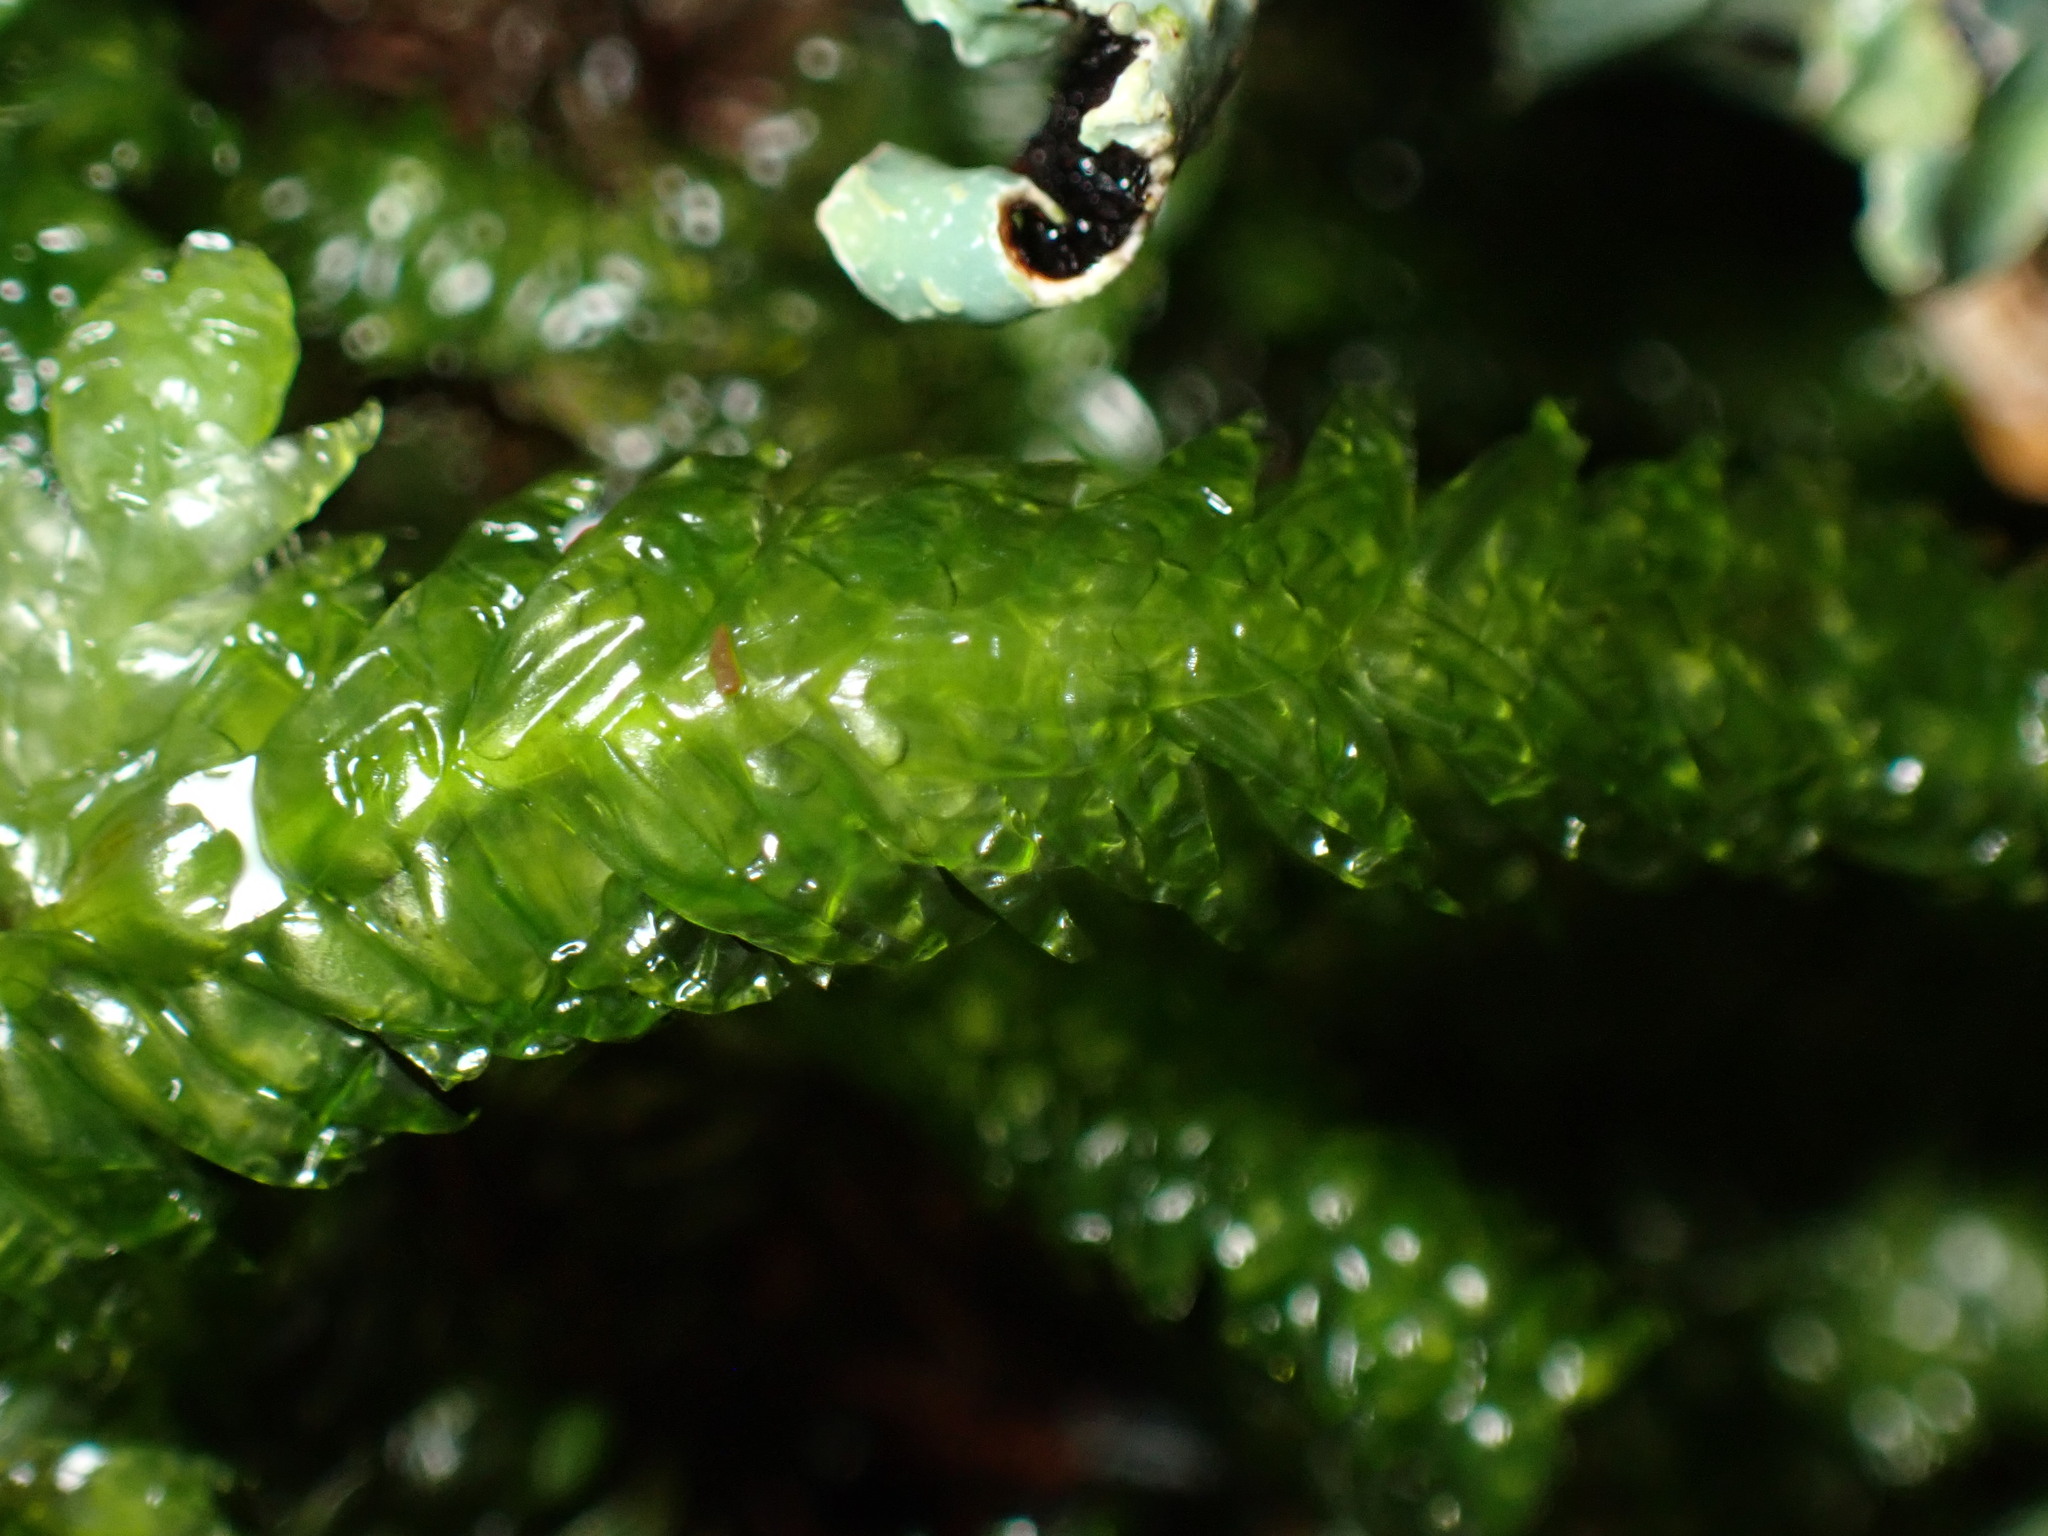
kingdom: Plantae
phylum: Bryophyta
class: Bryopsida
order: Hypnales
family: Plagiotheciaceae
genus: Plagiothecium
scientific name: Plagiothecium denticulatum
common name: Dented silk moss
